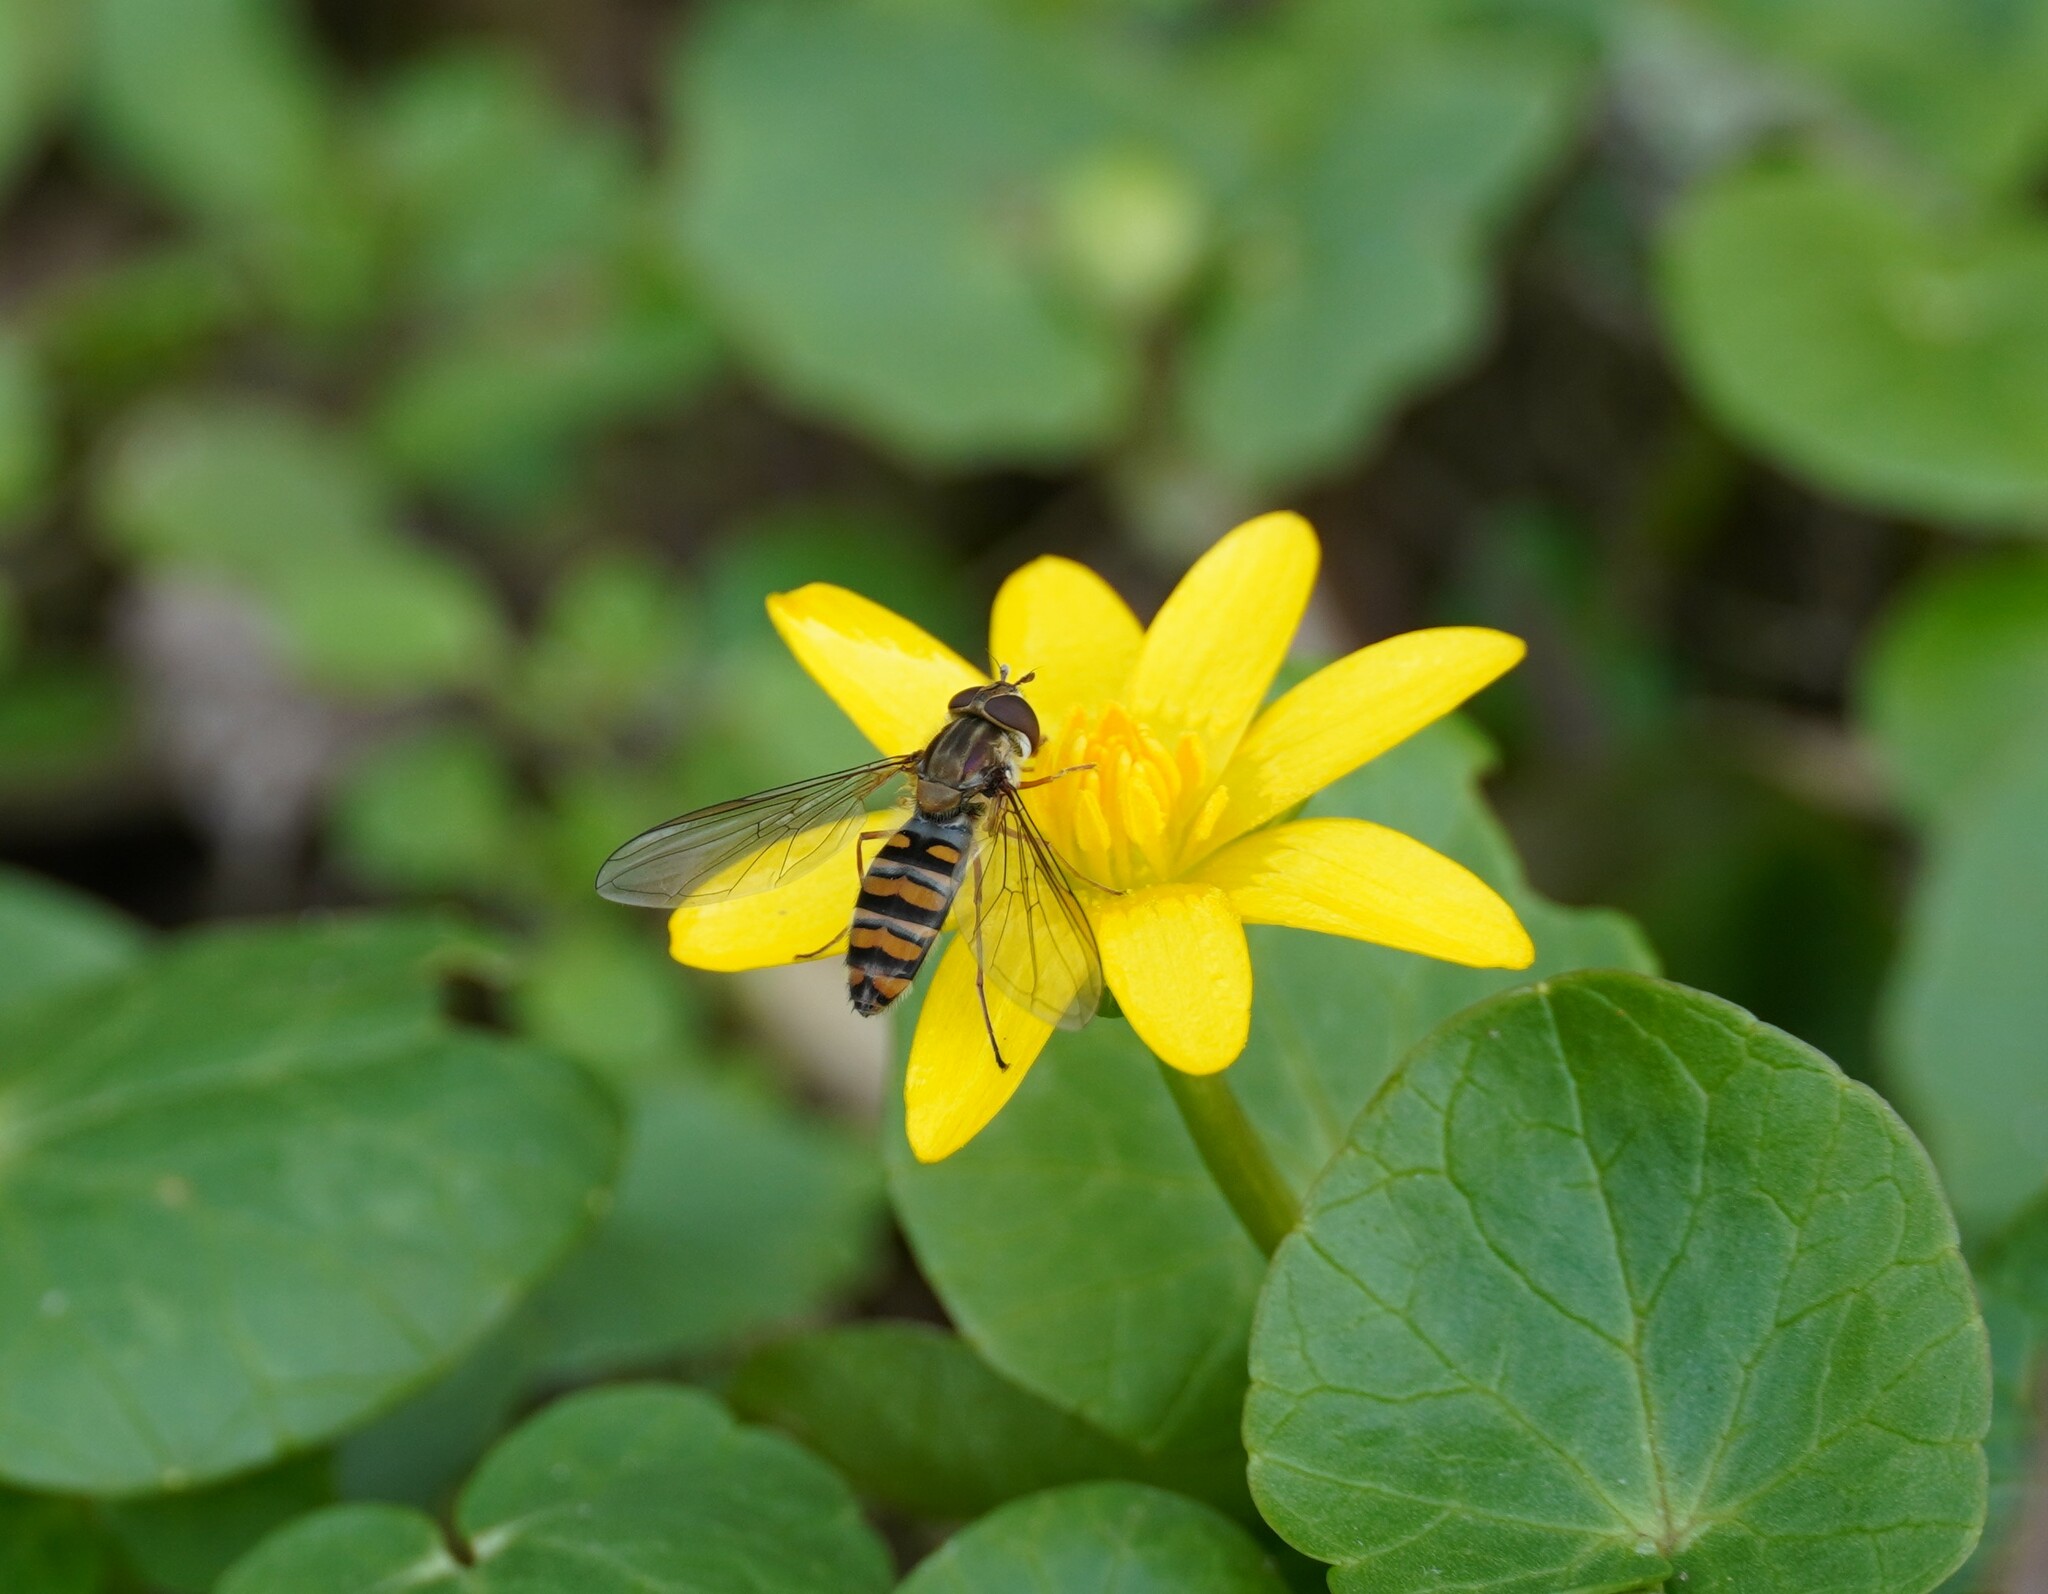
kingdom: Animalia
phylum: Arthropoda
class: Insecta
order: Diptera
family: Syrphidae
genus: Episyrphus
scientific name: Episyrphus balteatus
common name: Marmalade hoverfly
